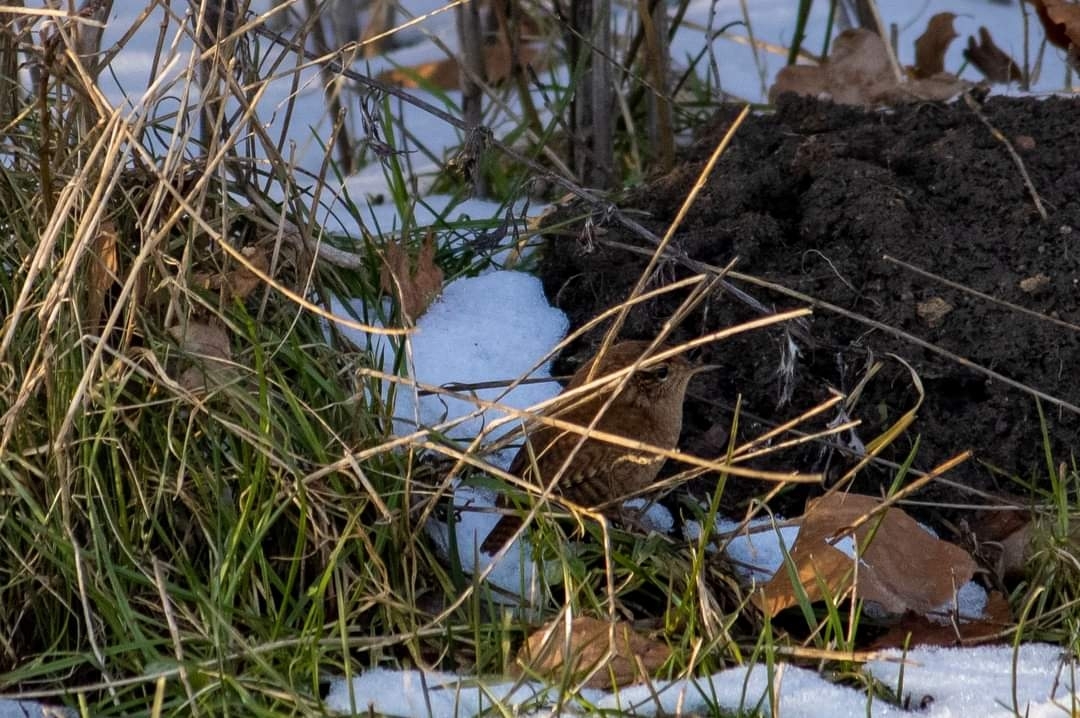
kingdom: Animalia
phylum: Chordata
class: Aves
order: Passeriformes
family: Troglodytidae
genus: Troglodytes
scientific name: Troglodytes troglodytes
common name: Eurasian wren
